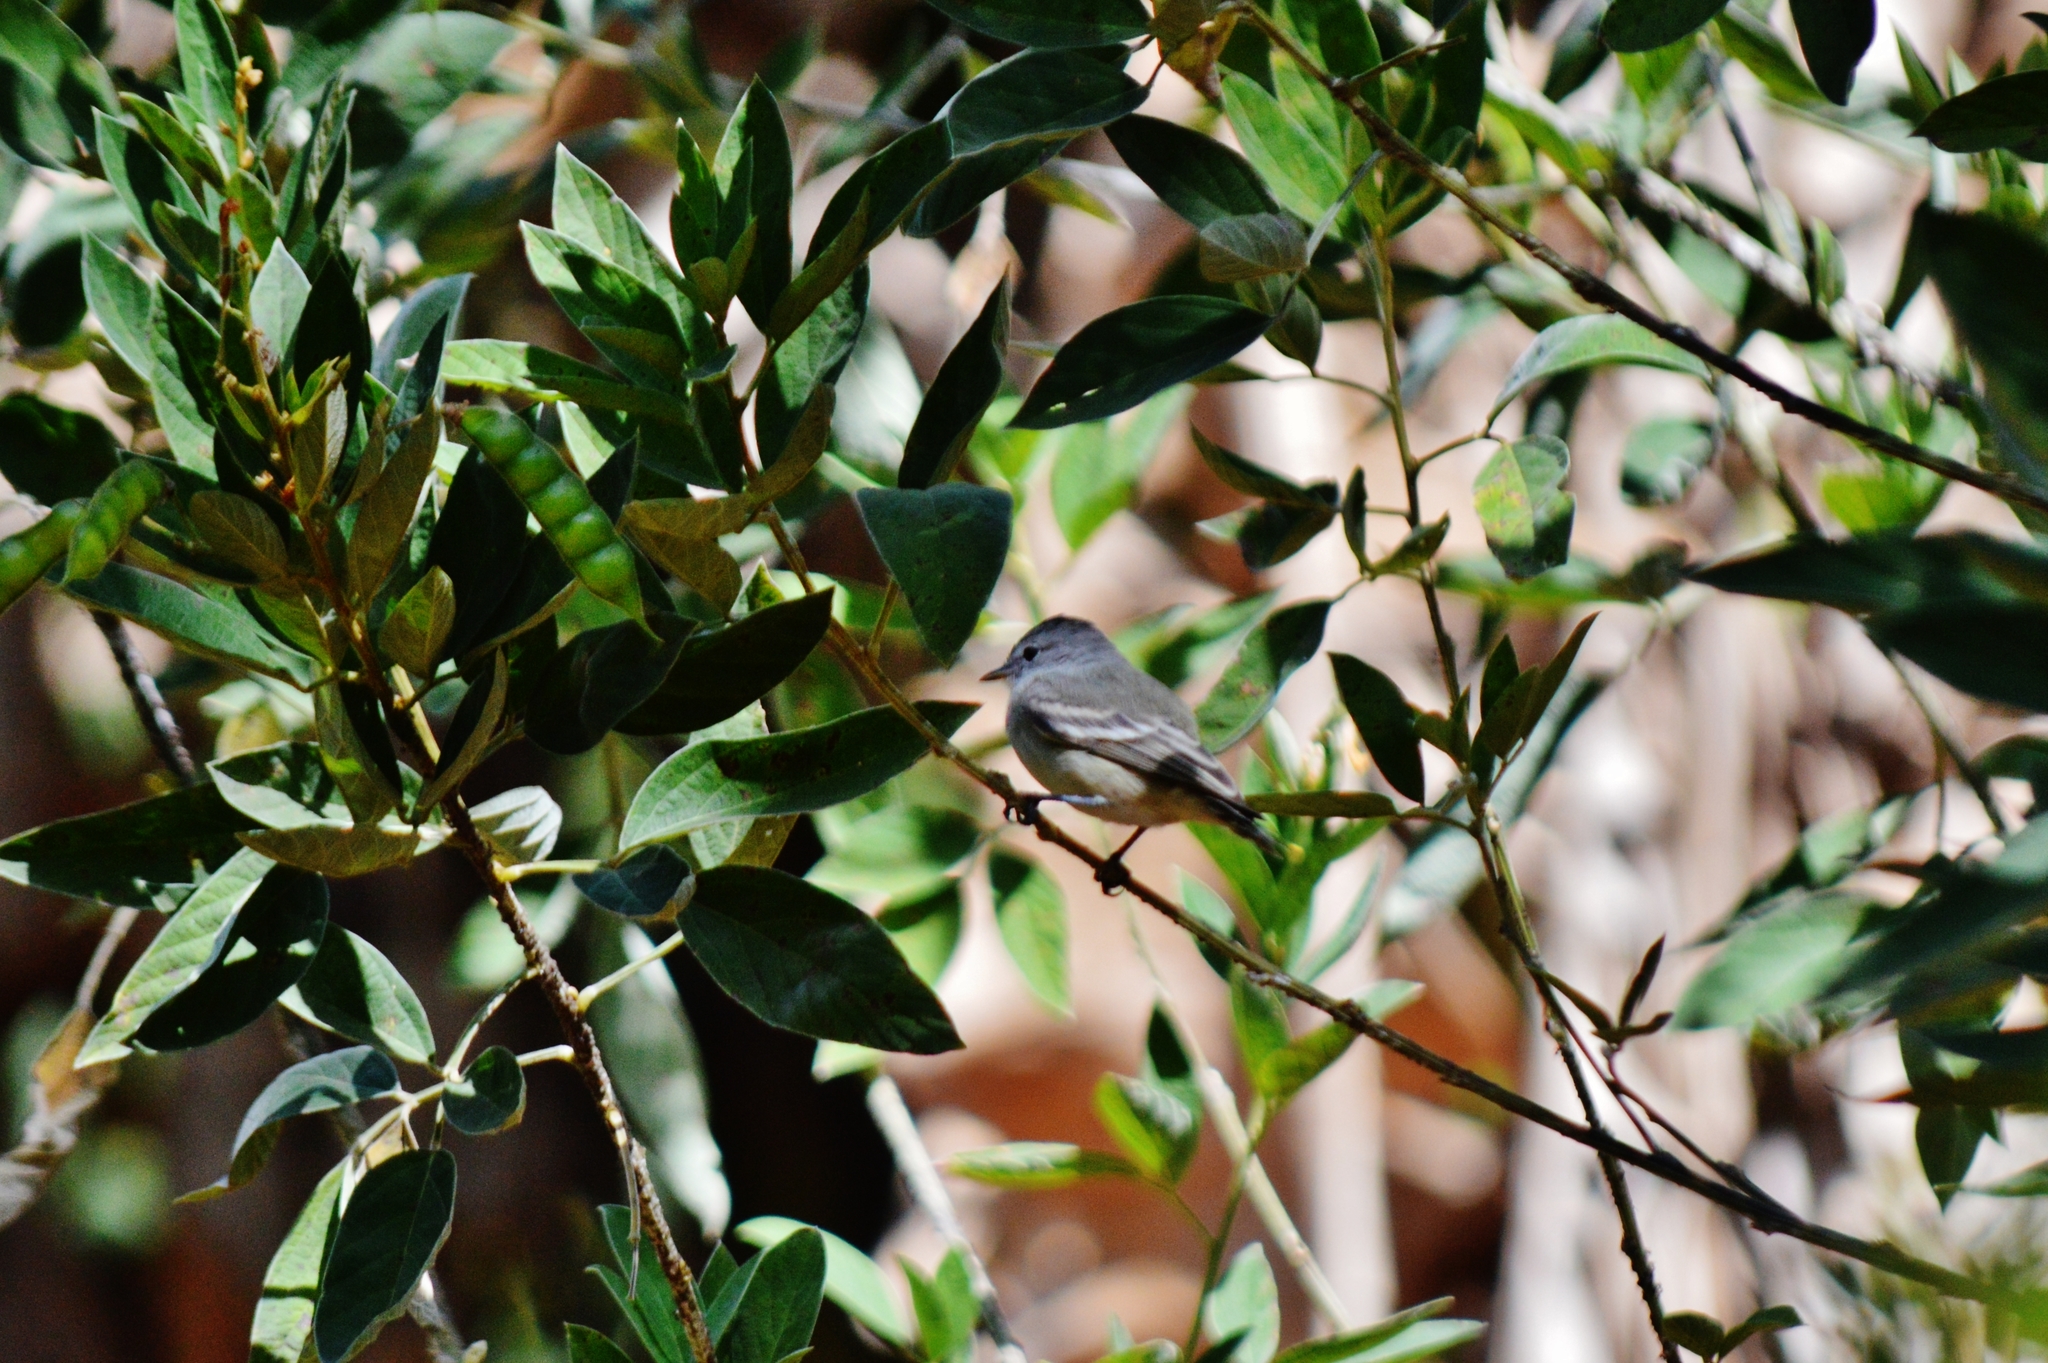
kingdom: Animalia
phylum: Chordata
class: Aves
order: Passeriformes
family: Tyrannidae
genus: Camptostoma
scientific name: Camptostoma obsoletum
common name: Southern beardless-tyrannulet
